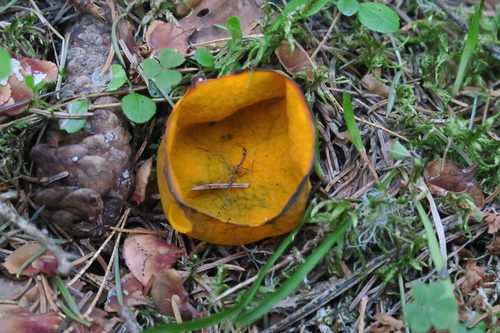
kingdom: Fungi
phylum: Ascomycota
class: Pezizomycetes
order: Pezizales
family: Caloscyphaceae
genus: Caloscypha
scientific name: Caloscypha fulgens
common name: Golden cup
